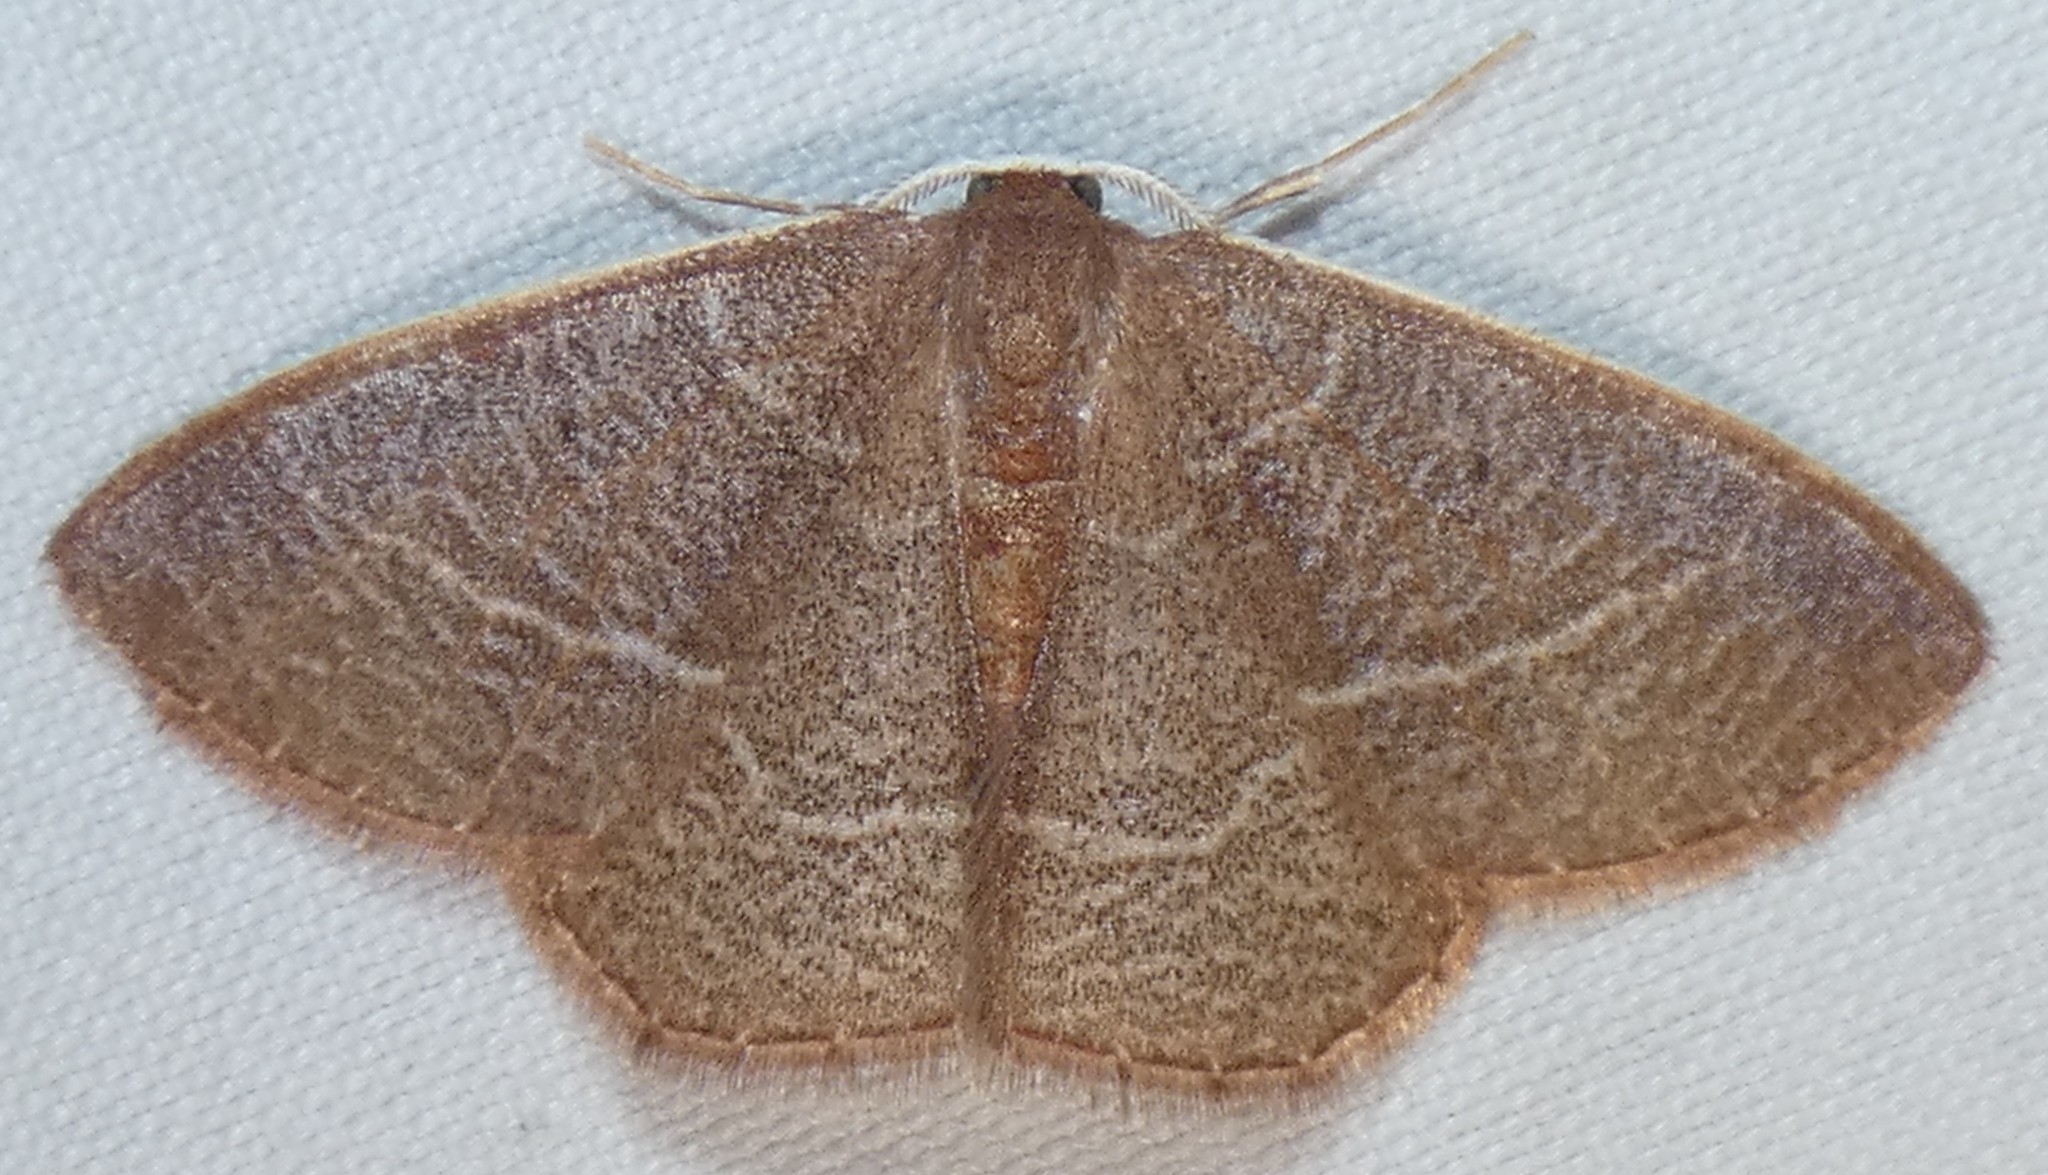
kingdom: Animalia
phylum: Arthropoda
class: Insecta
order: Lepidoptera
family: Geometridae
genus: Nemoria
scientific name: Nemoria bistriaria
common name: Red-fringed emerald
